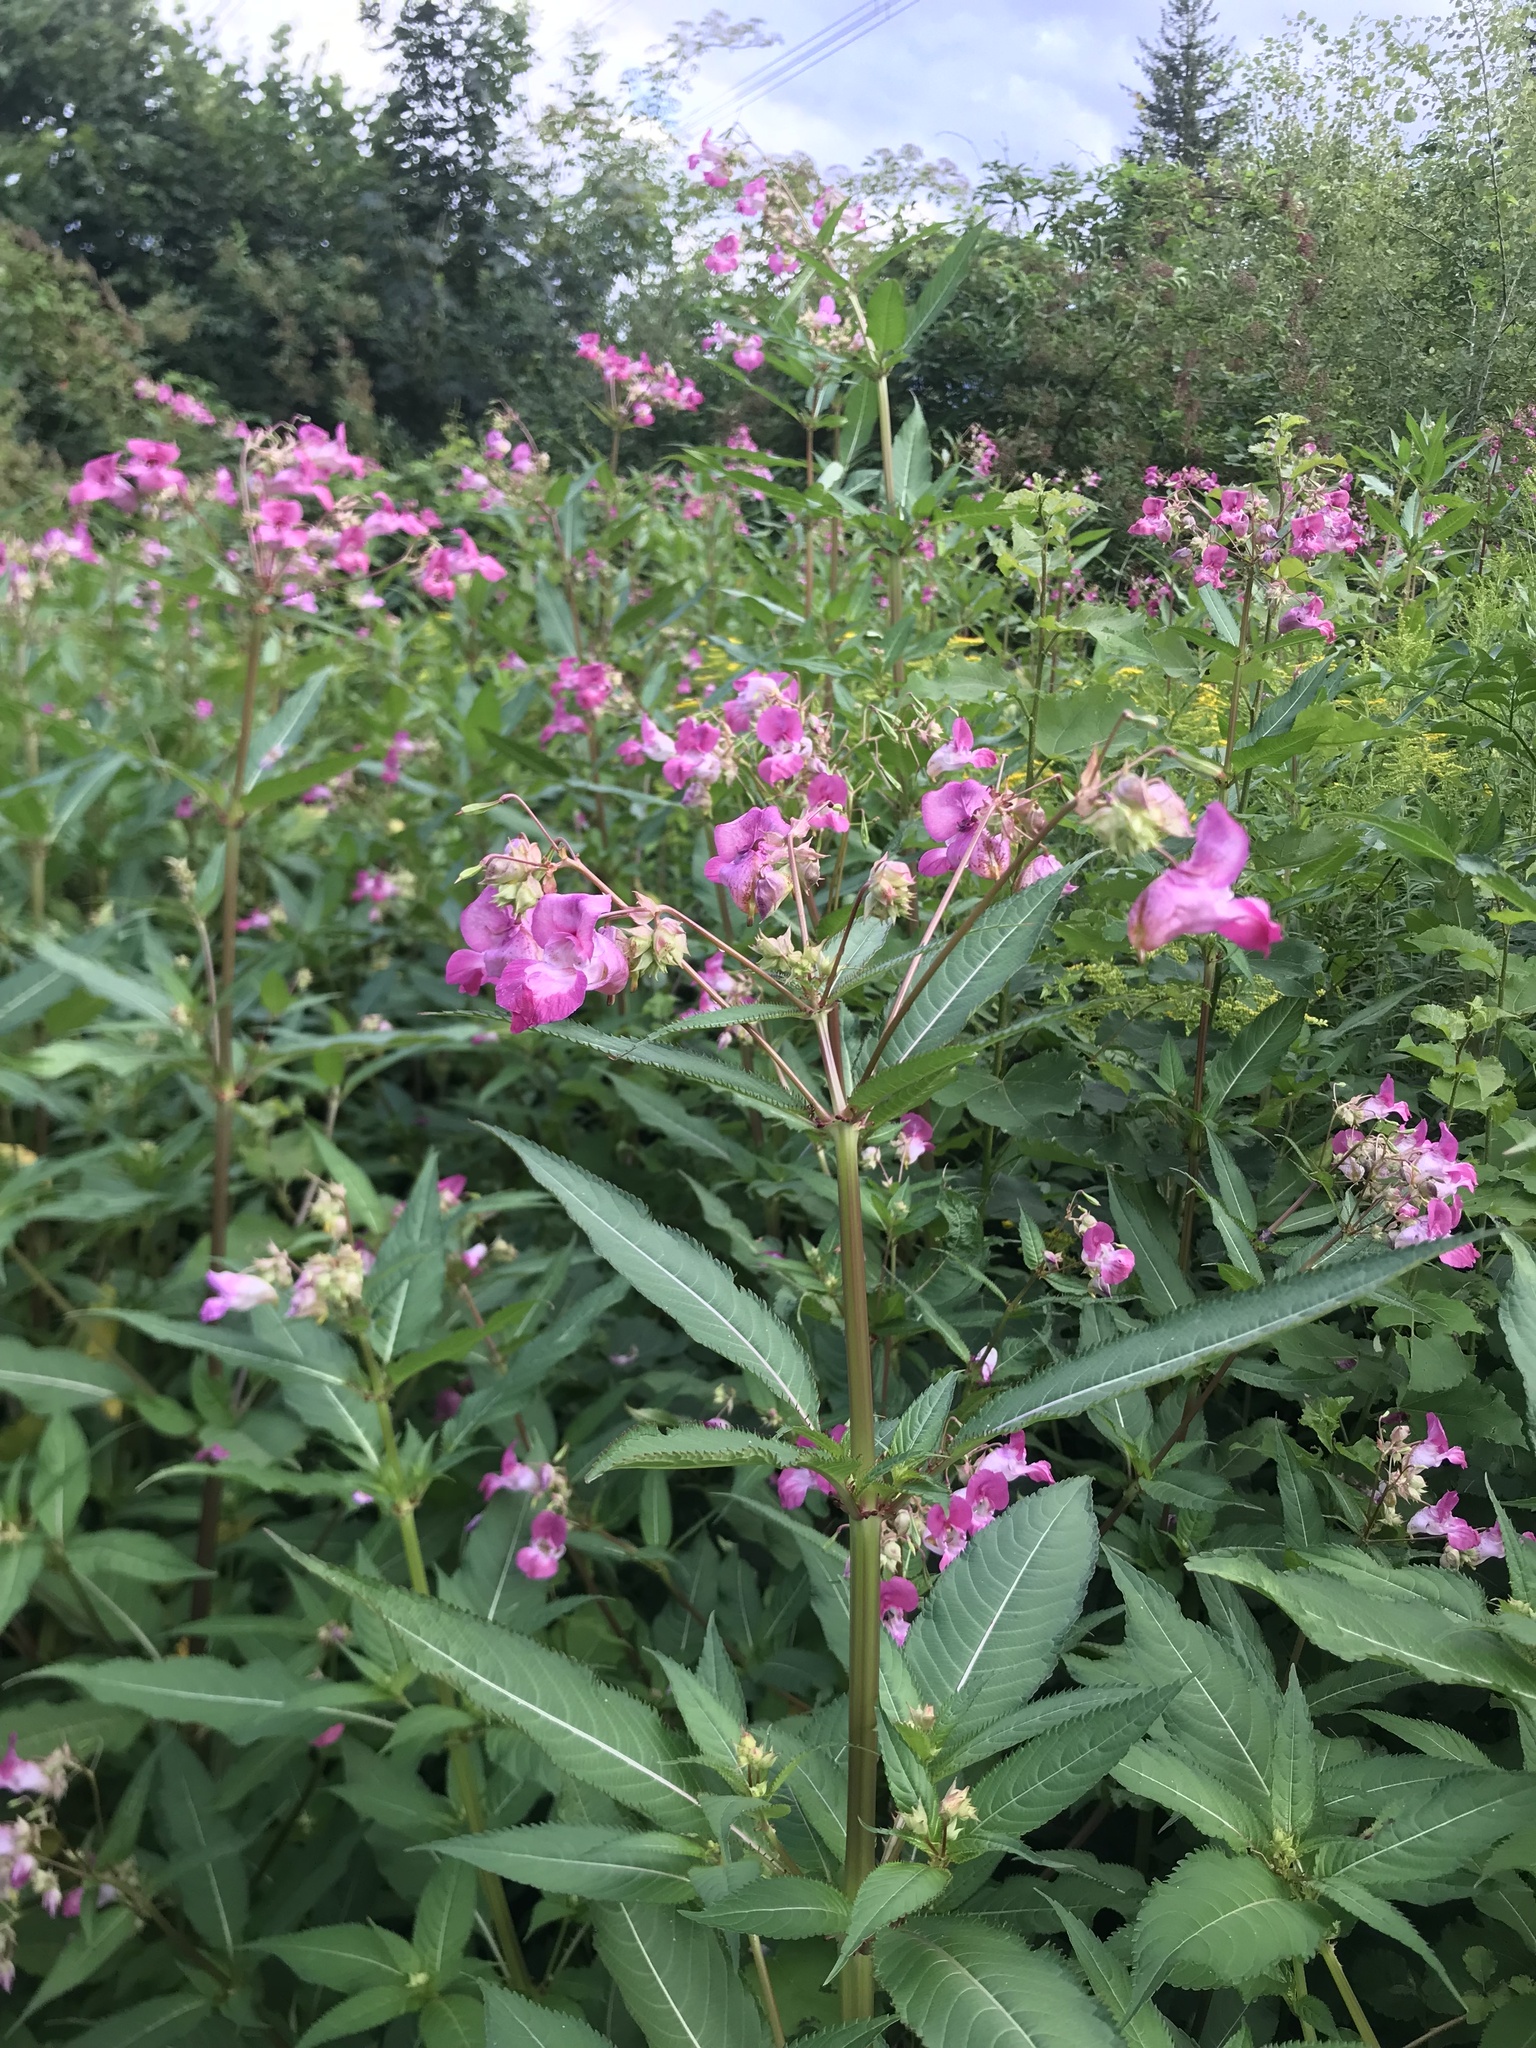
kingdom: Plantae
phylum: Tracheophyta
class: Magnoliopsida
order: Ericales
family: Balsaminaceae
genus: Impatiens
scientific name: Impatiens glandulifera
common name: Himalayan balsam
